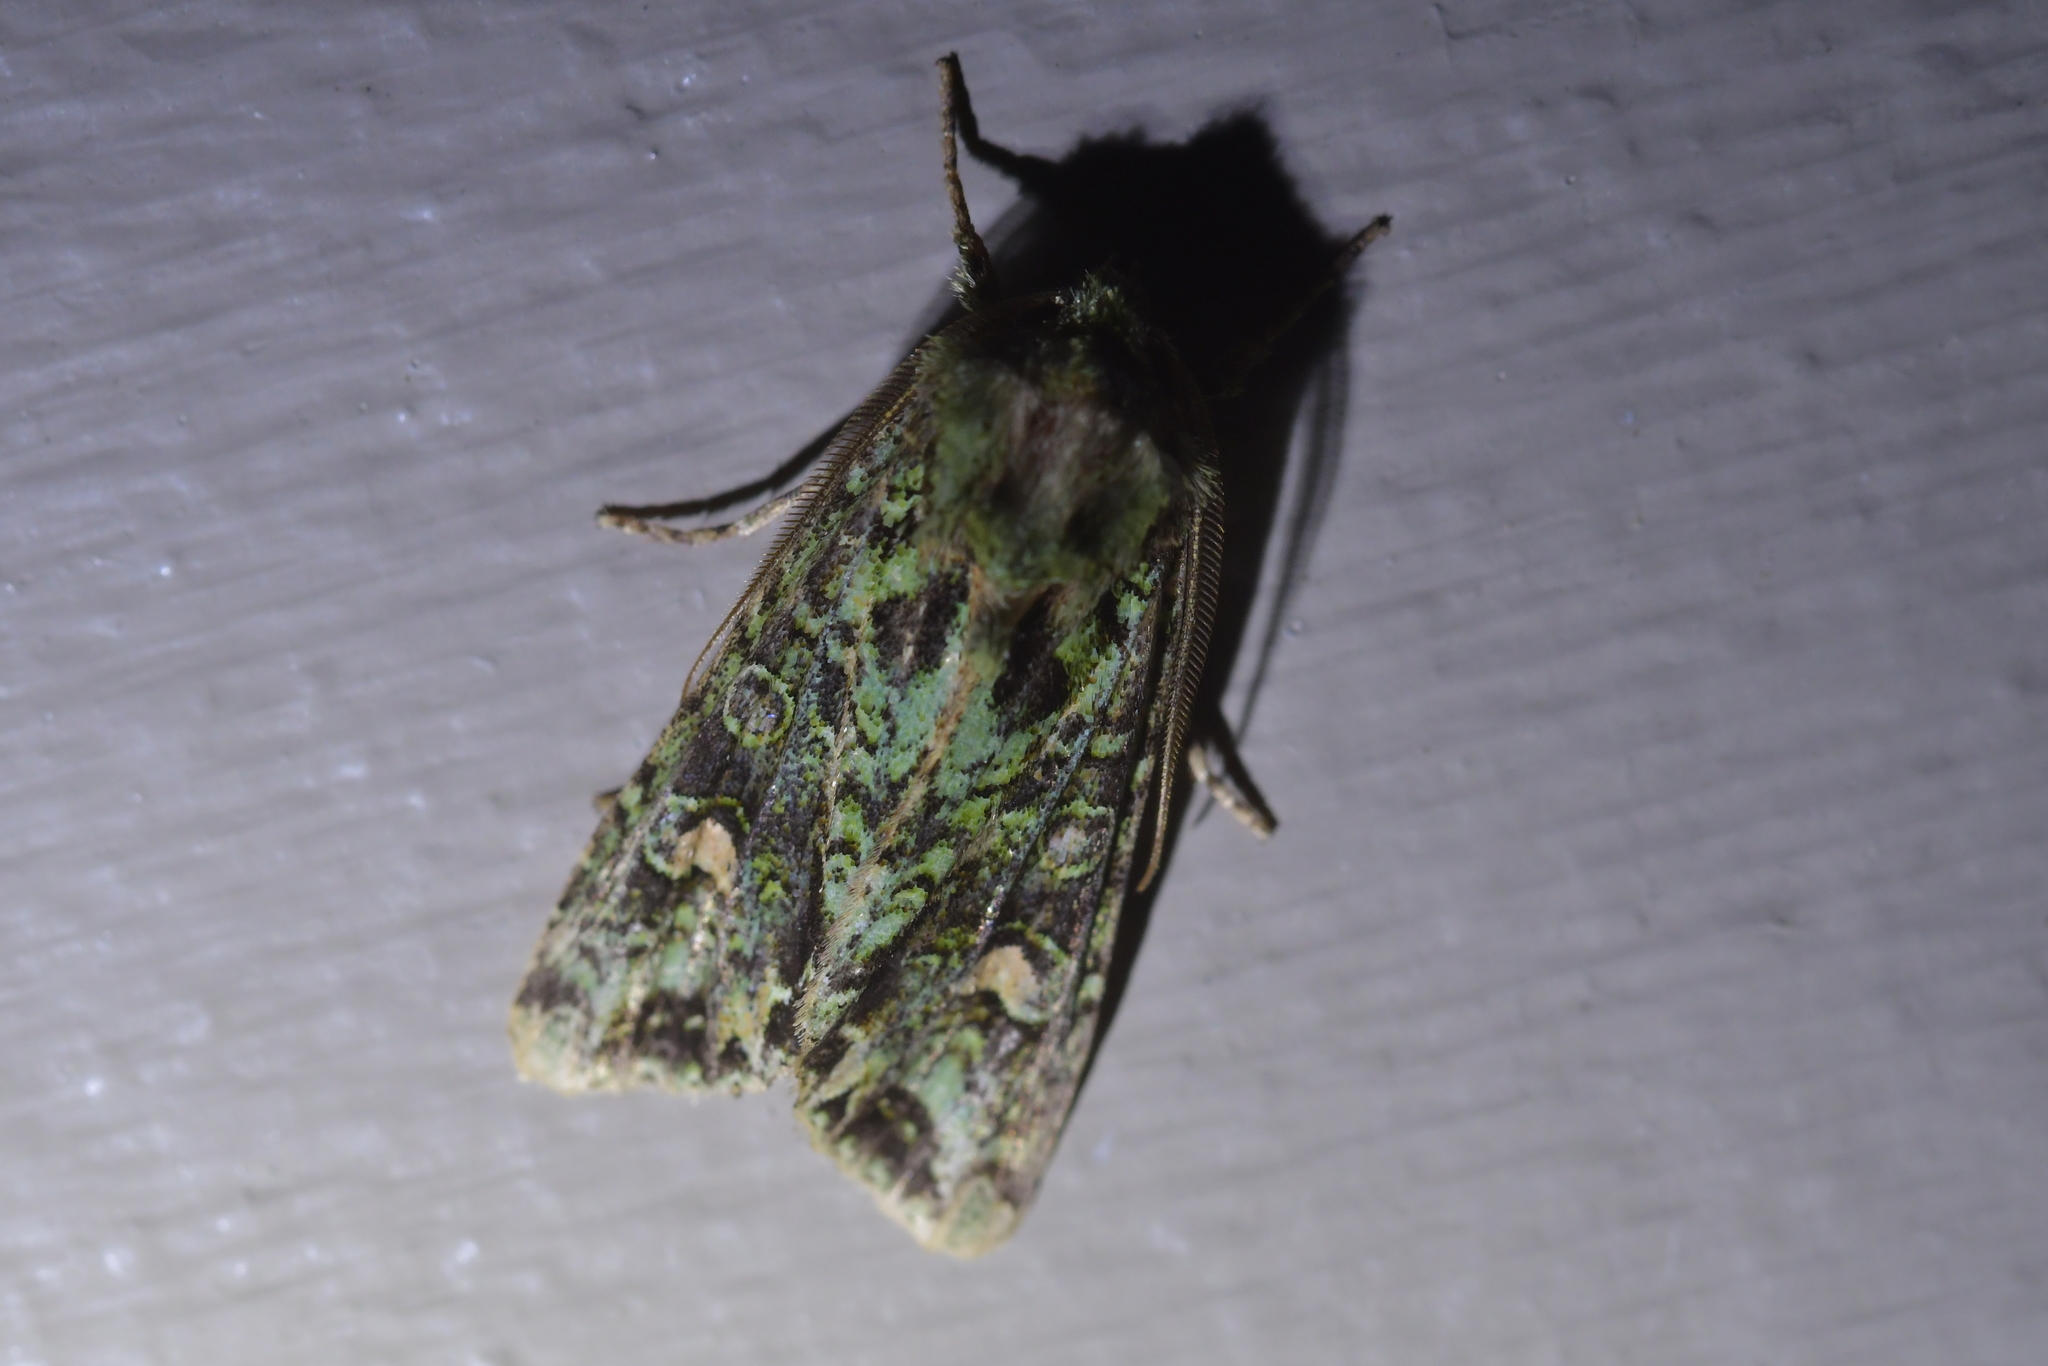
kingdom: Animalia
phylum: Arthropoda
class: Insecta
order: Lepidoptera
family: Noctuidae
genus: Ichneutica
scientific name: Ichneutica
